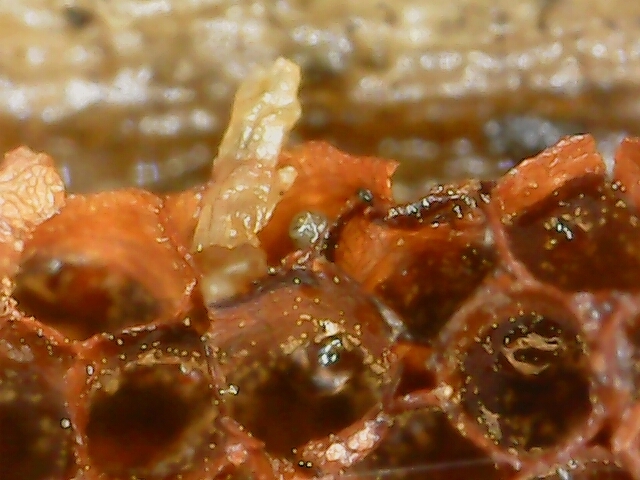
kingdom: Protozoa
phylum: Mycetozoa
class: Myxomycetes
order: Trichiales
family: Trichiaceae
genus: Metatrichia
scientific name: Metatrichia vesparia
